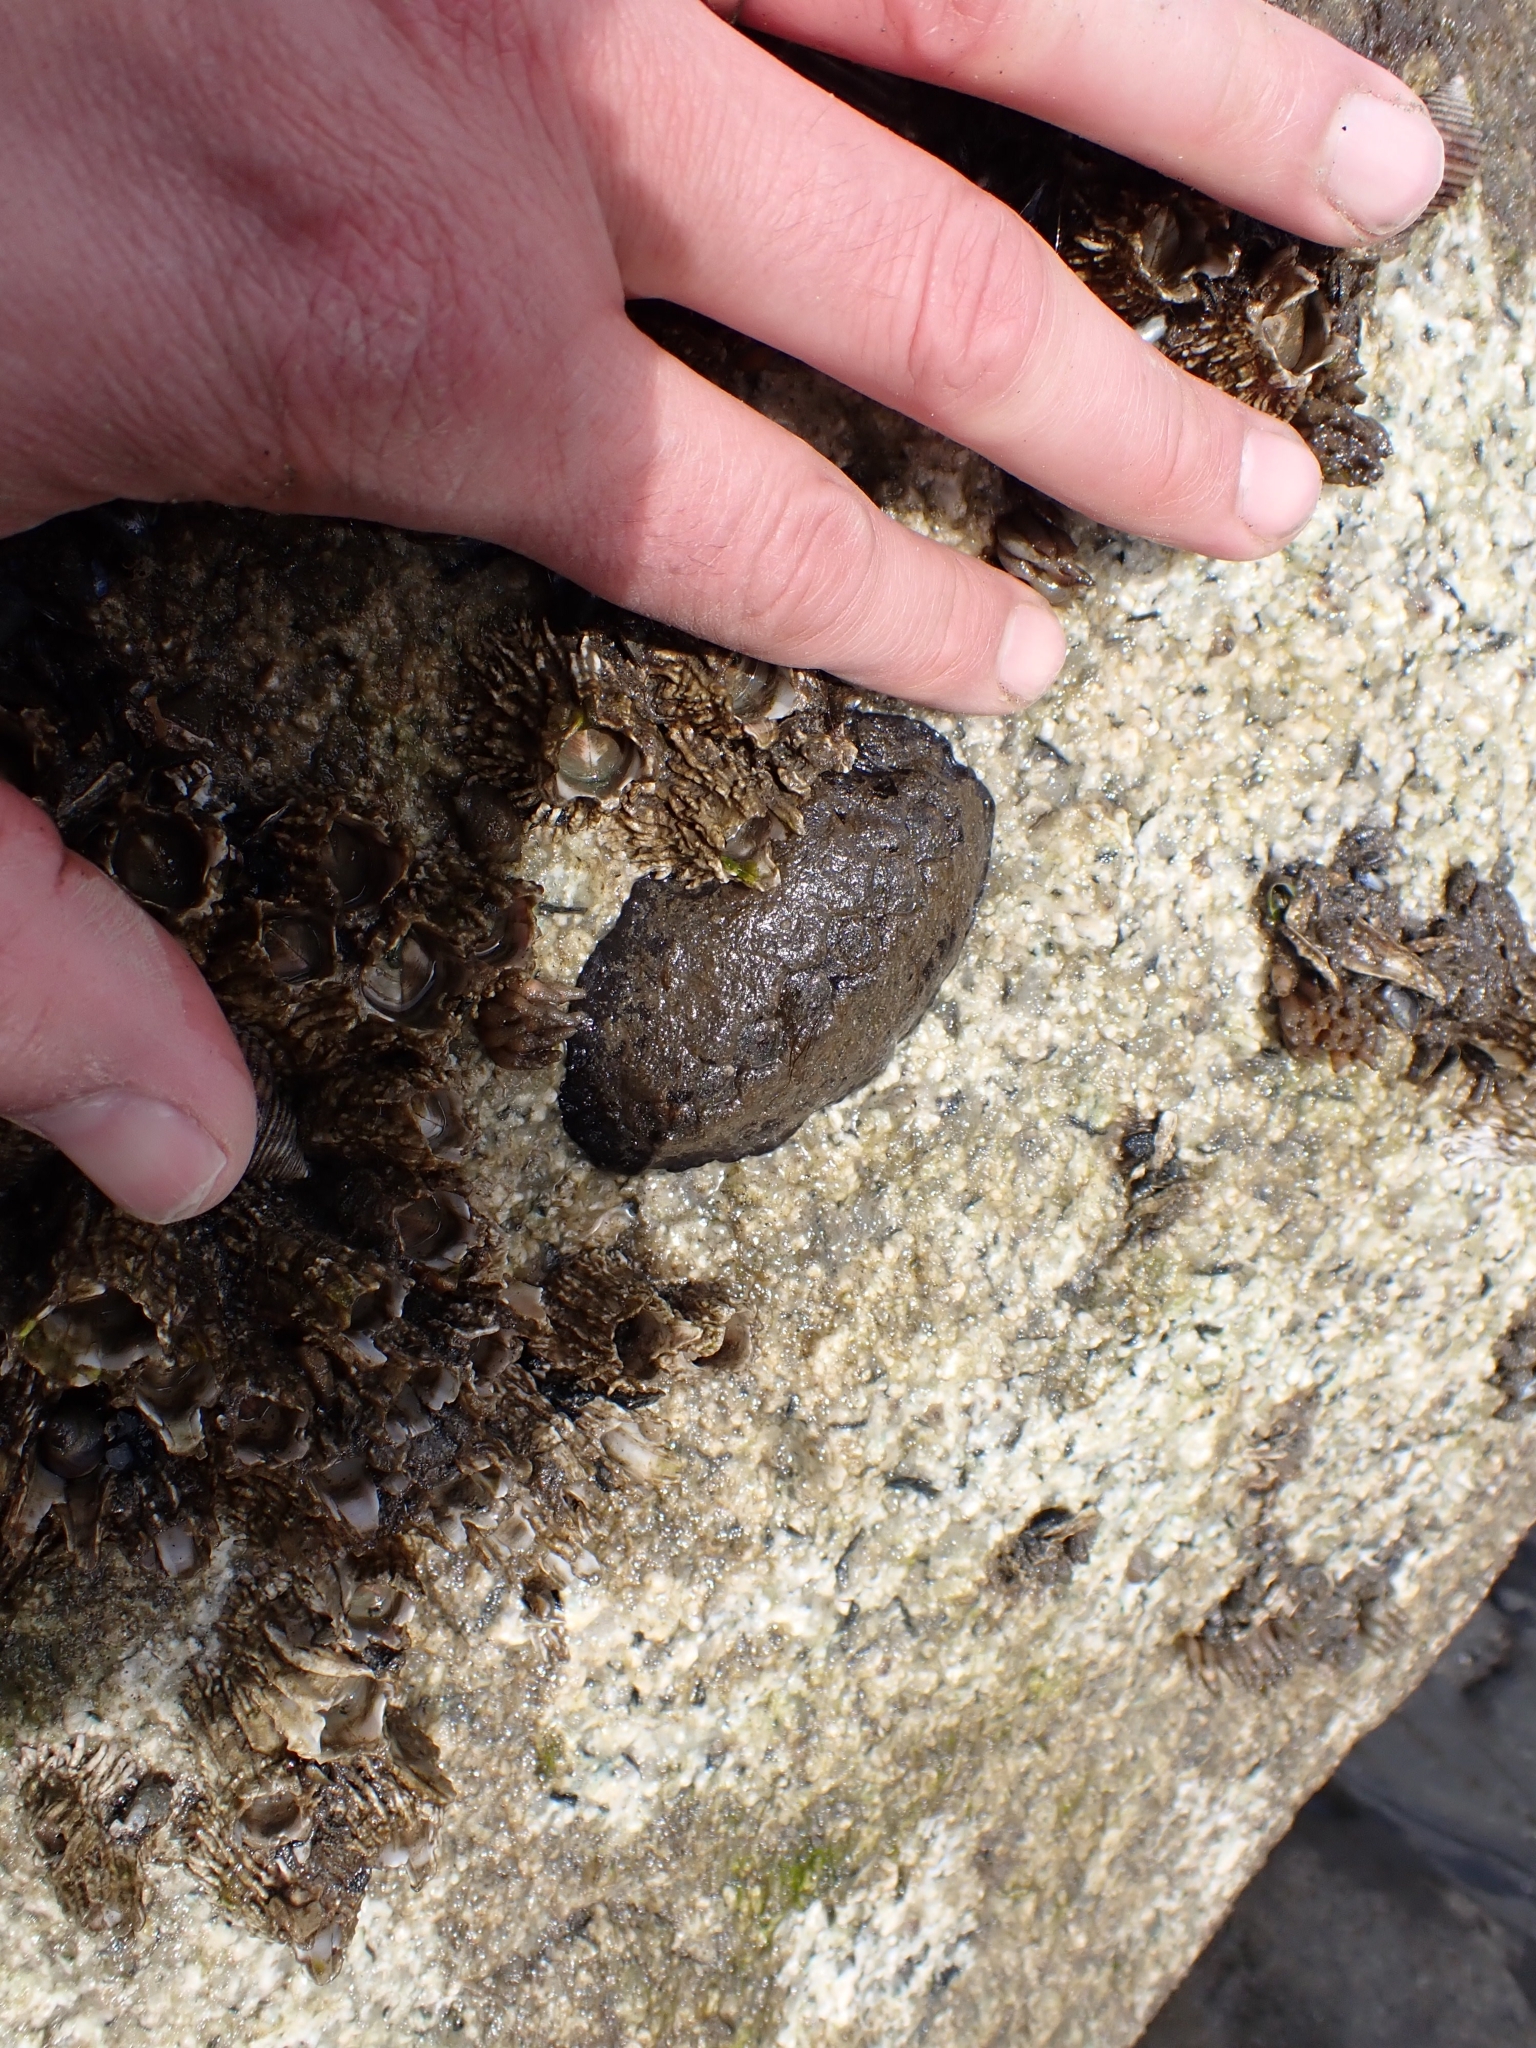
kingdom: Animalia
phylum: Mollusca
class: Polyplacophora
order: Chitonida
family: Mopaliidae
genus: Katharina
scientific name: Katharina tunicata
